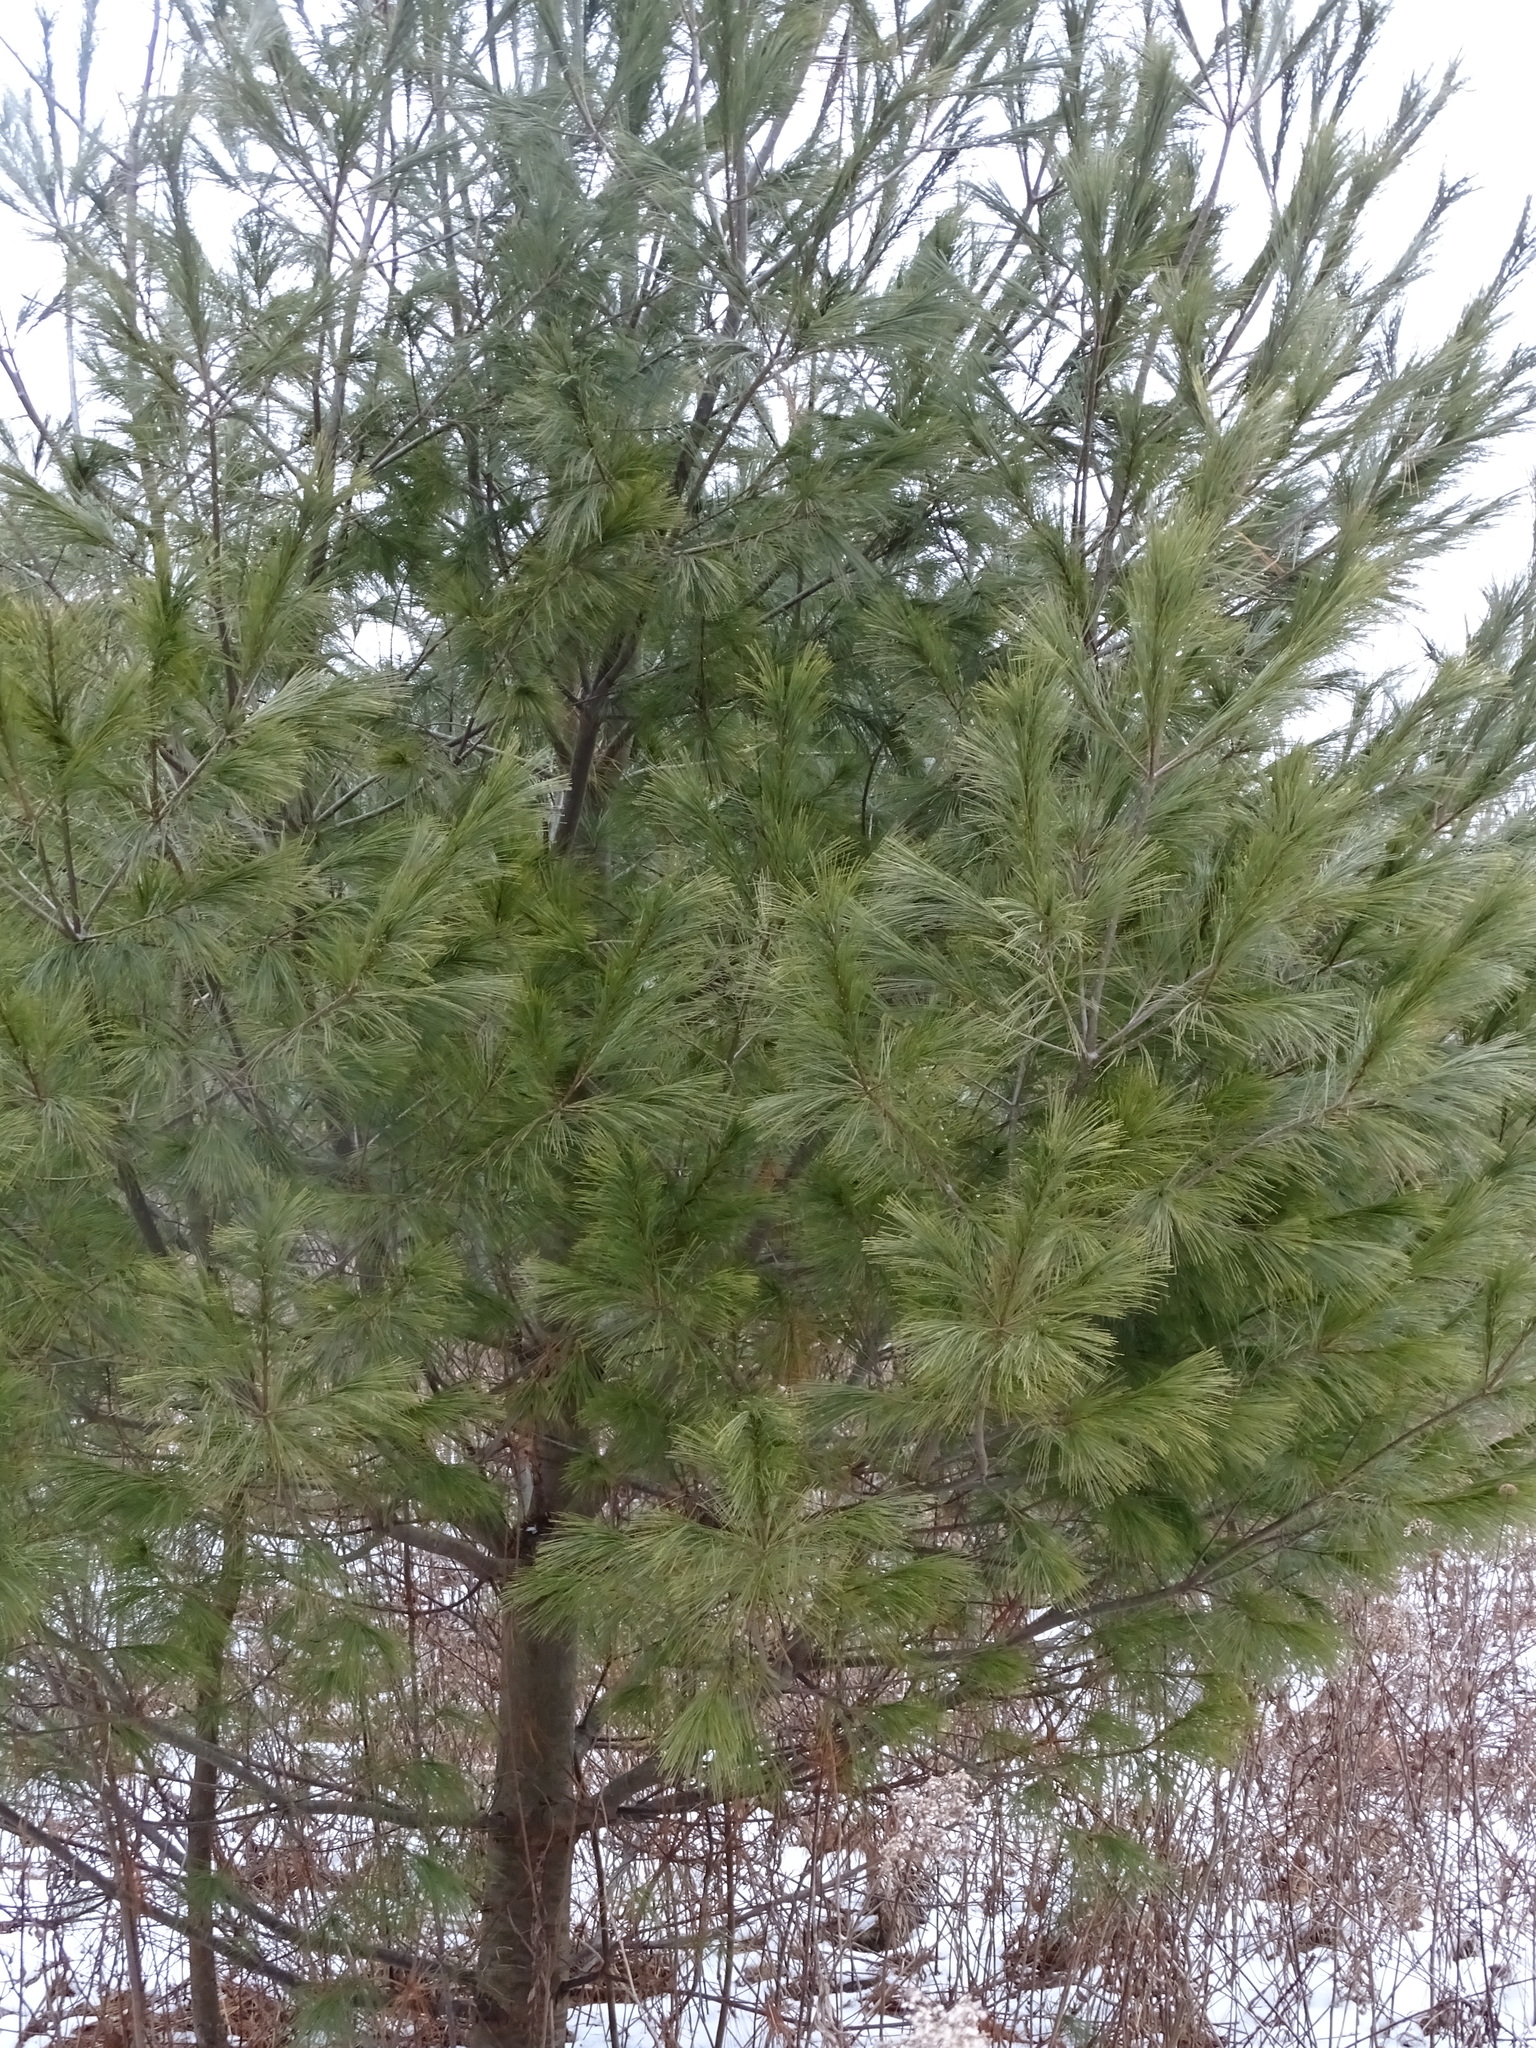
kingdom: Plantae
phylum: Tracheophyta
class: Pinopsida
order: Pinales
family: Pinaceae
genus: Pinus
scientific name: Pinus strobus
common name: Weymouth pine
